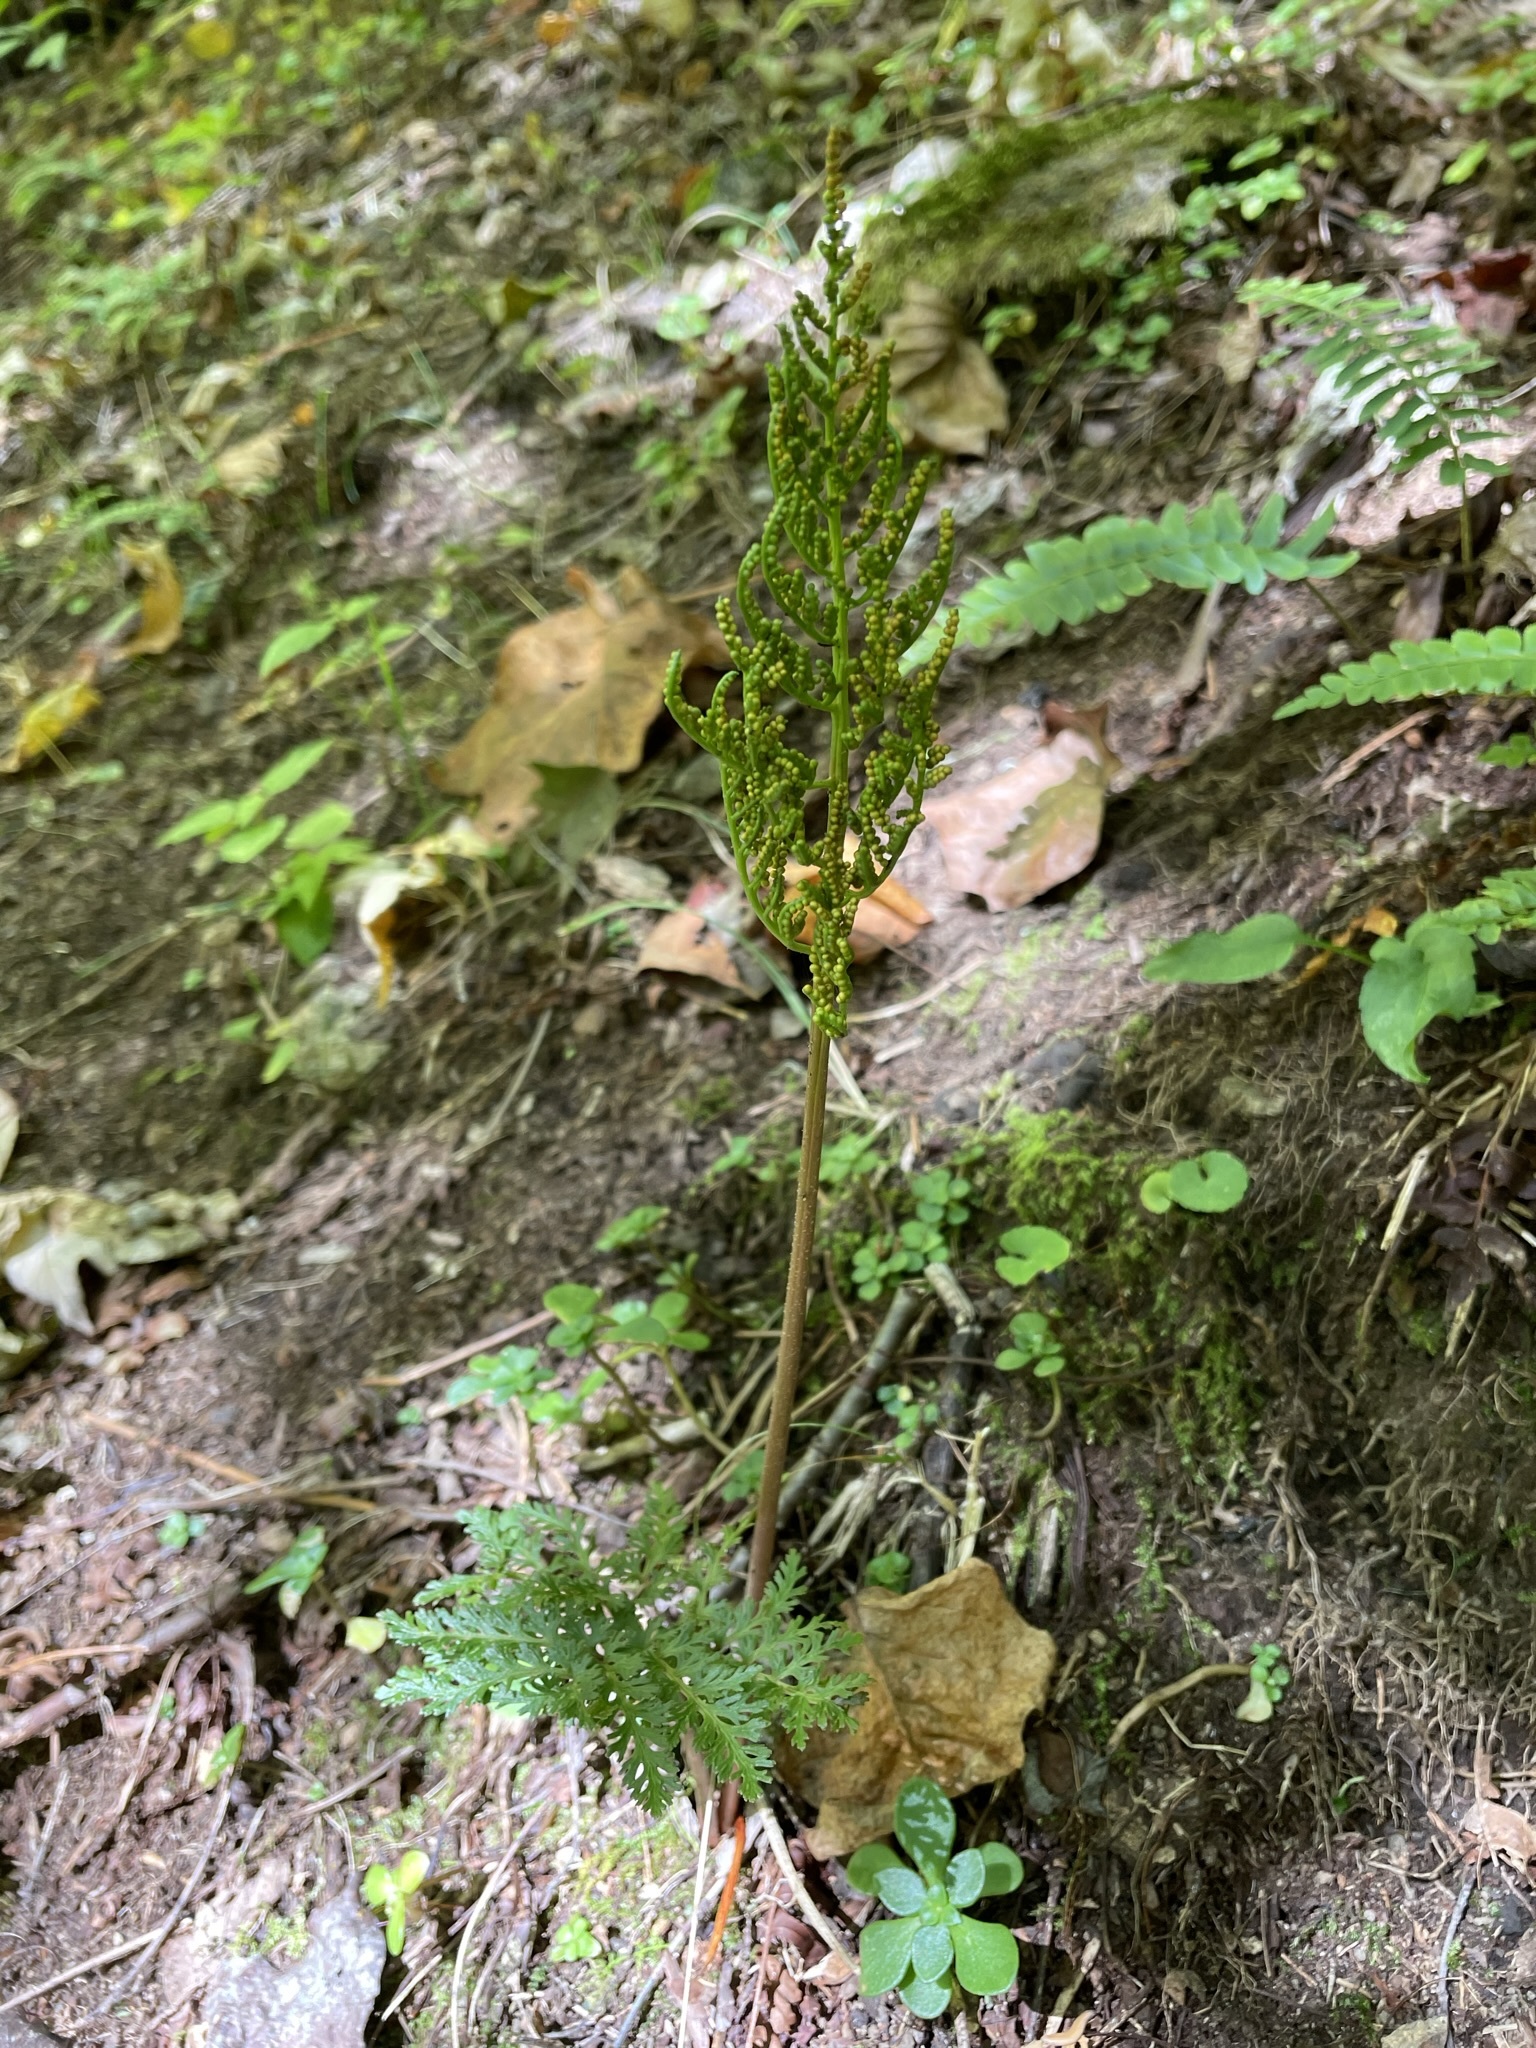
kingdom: Plantae
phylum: Tracheophyta
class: Polypodiopsida
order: Ophioglossales
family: Ophioglossaceae
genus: Sceptridium
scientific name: Sceptridium dissectum
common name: Cut-leaved grapefern
